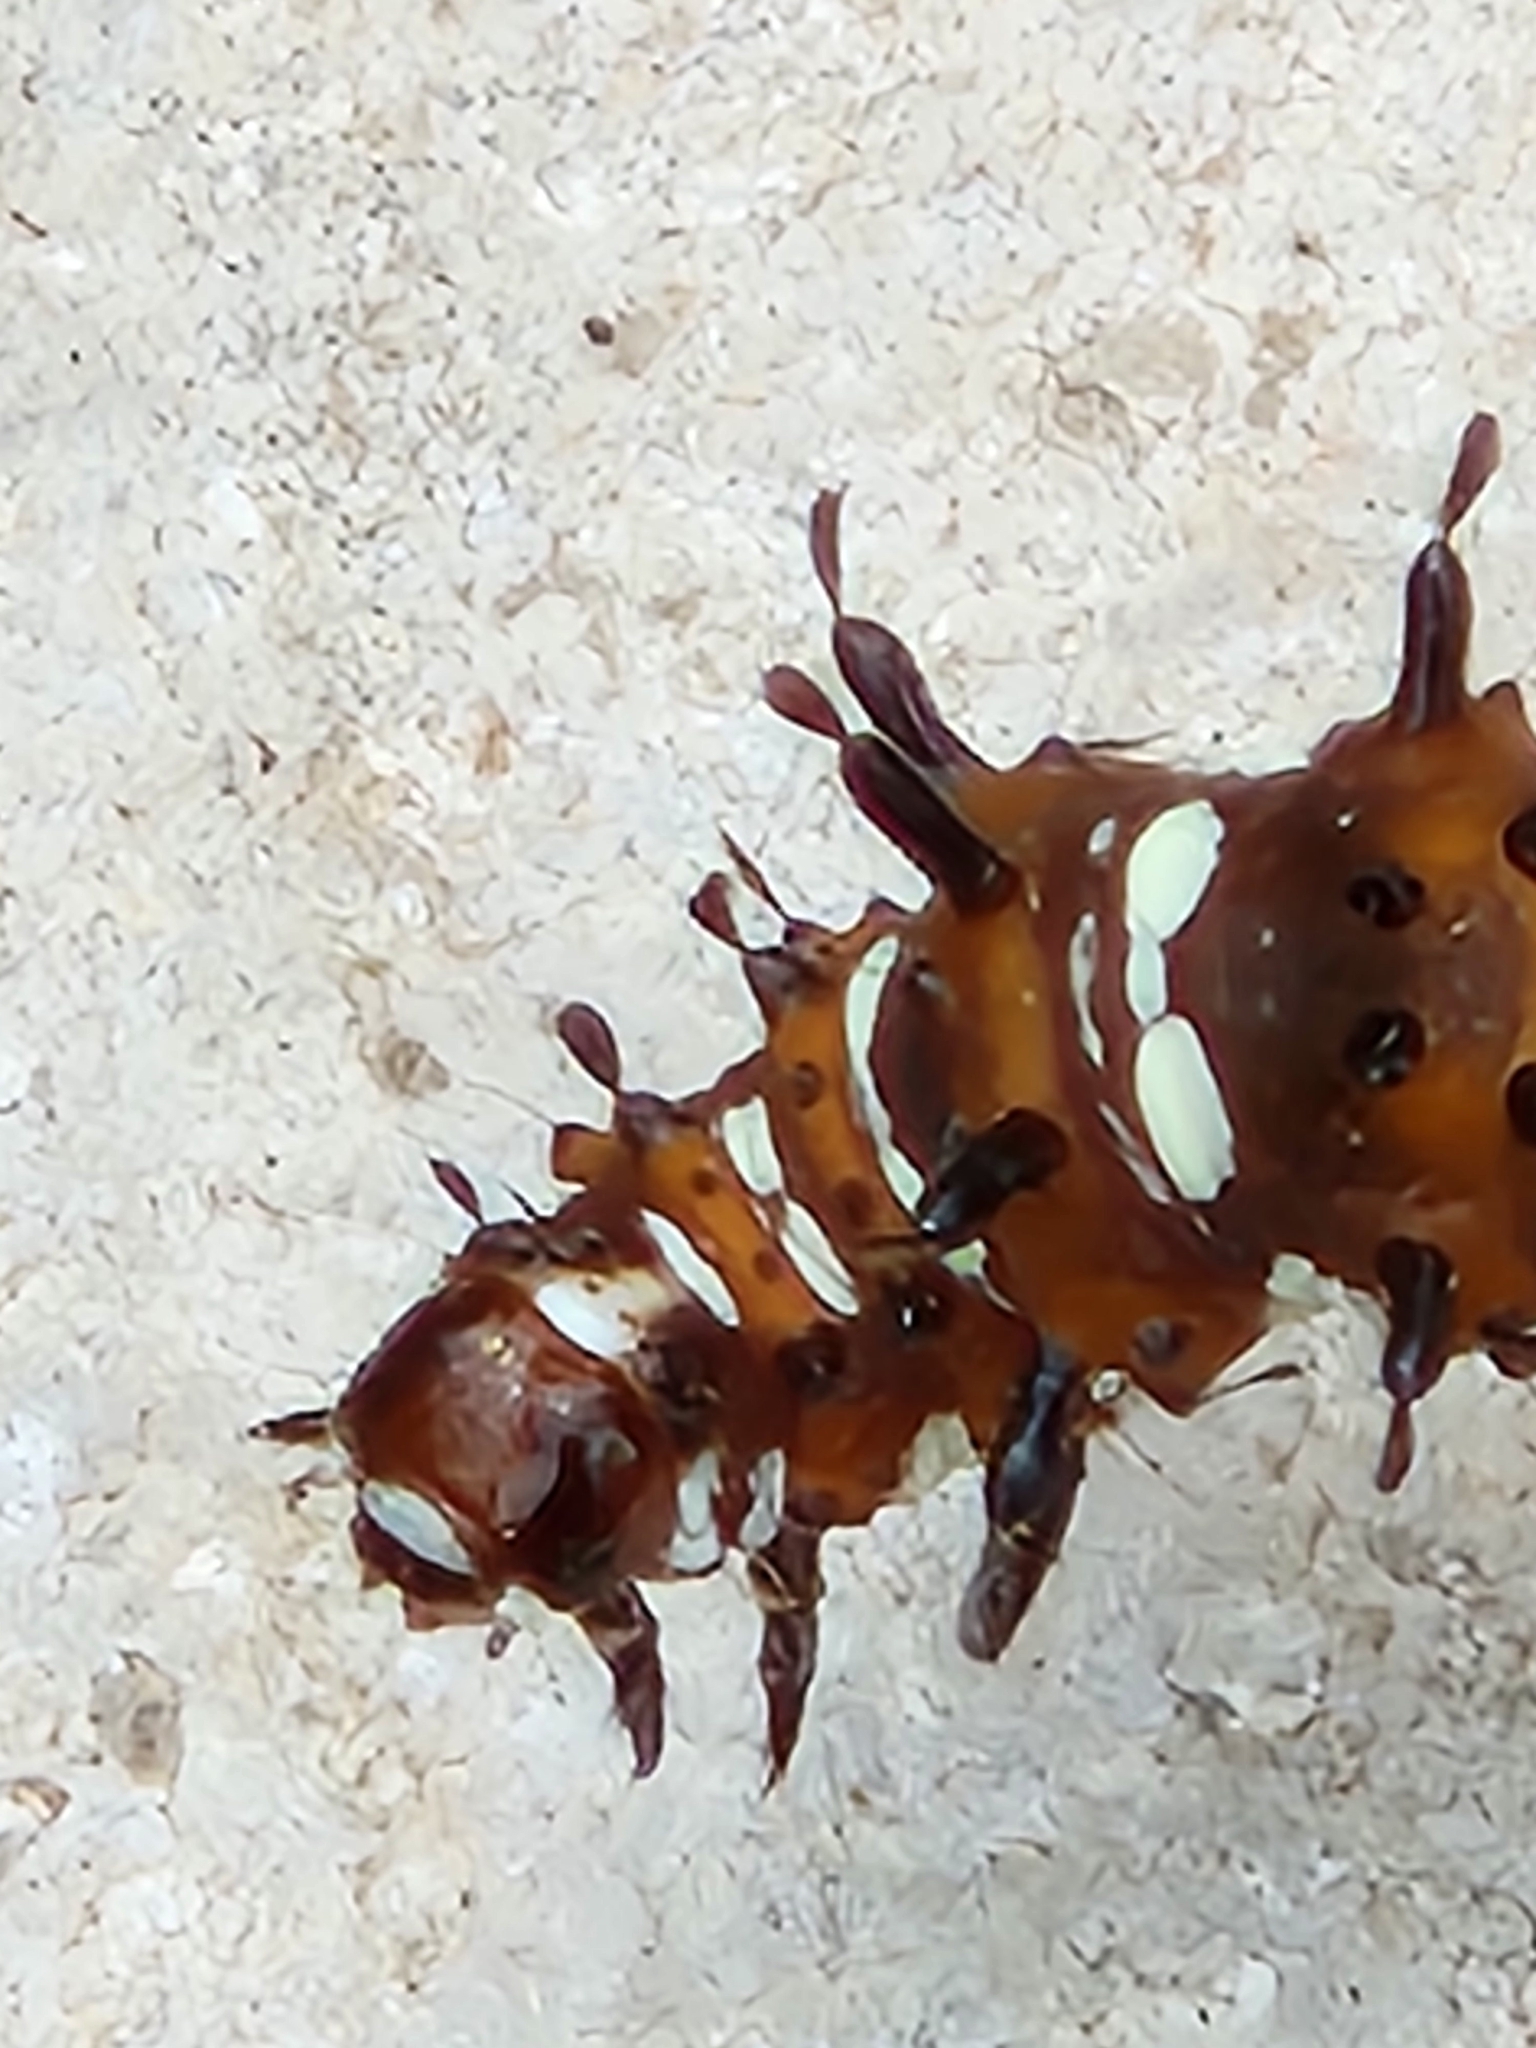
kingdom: Animalia
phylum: Arthropoda
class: Insecta
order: Lepidoptera
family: Nymphalidae
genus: Euptoieta
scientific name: Euptoieta claudia
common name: Variegated fritillary
